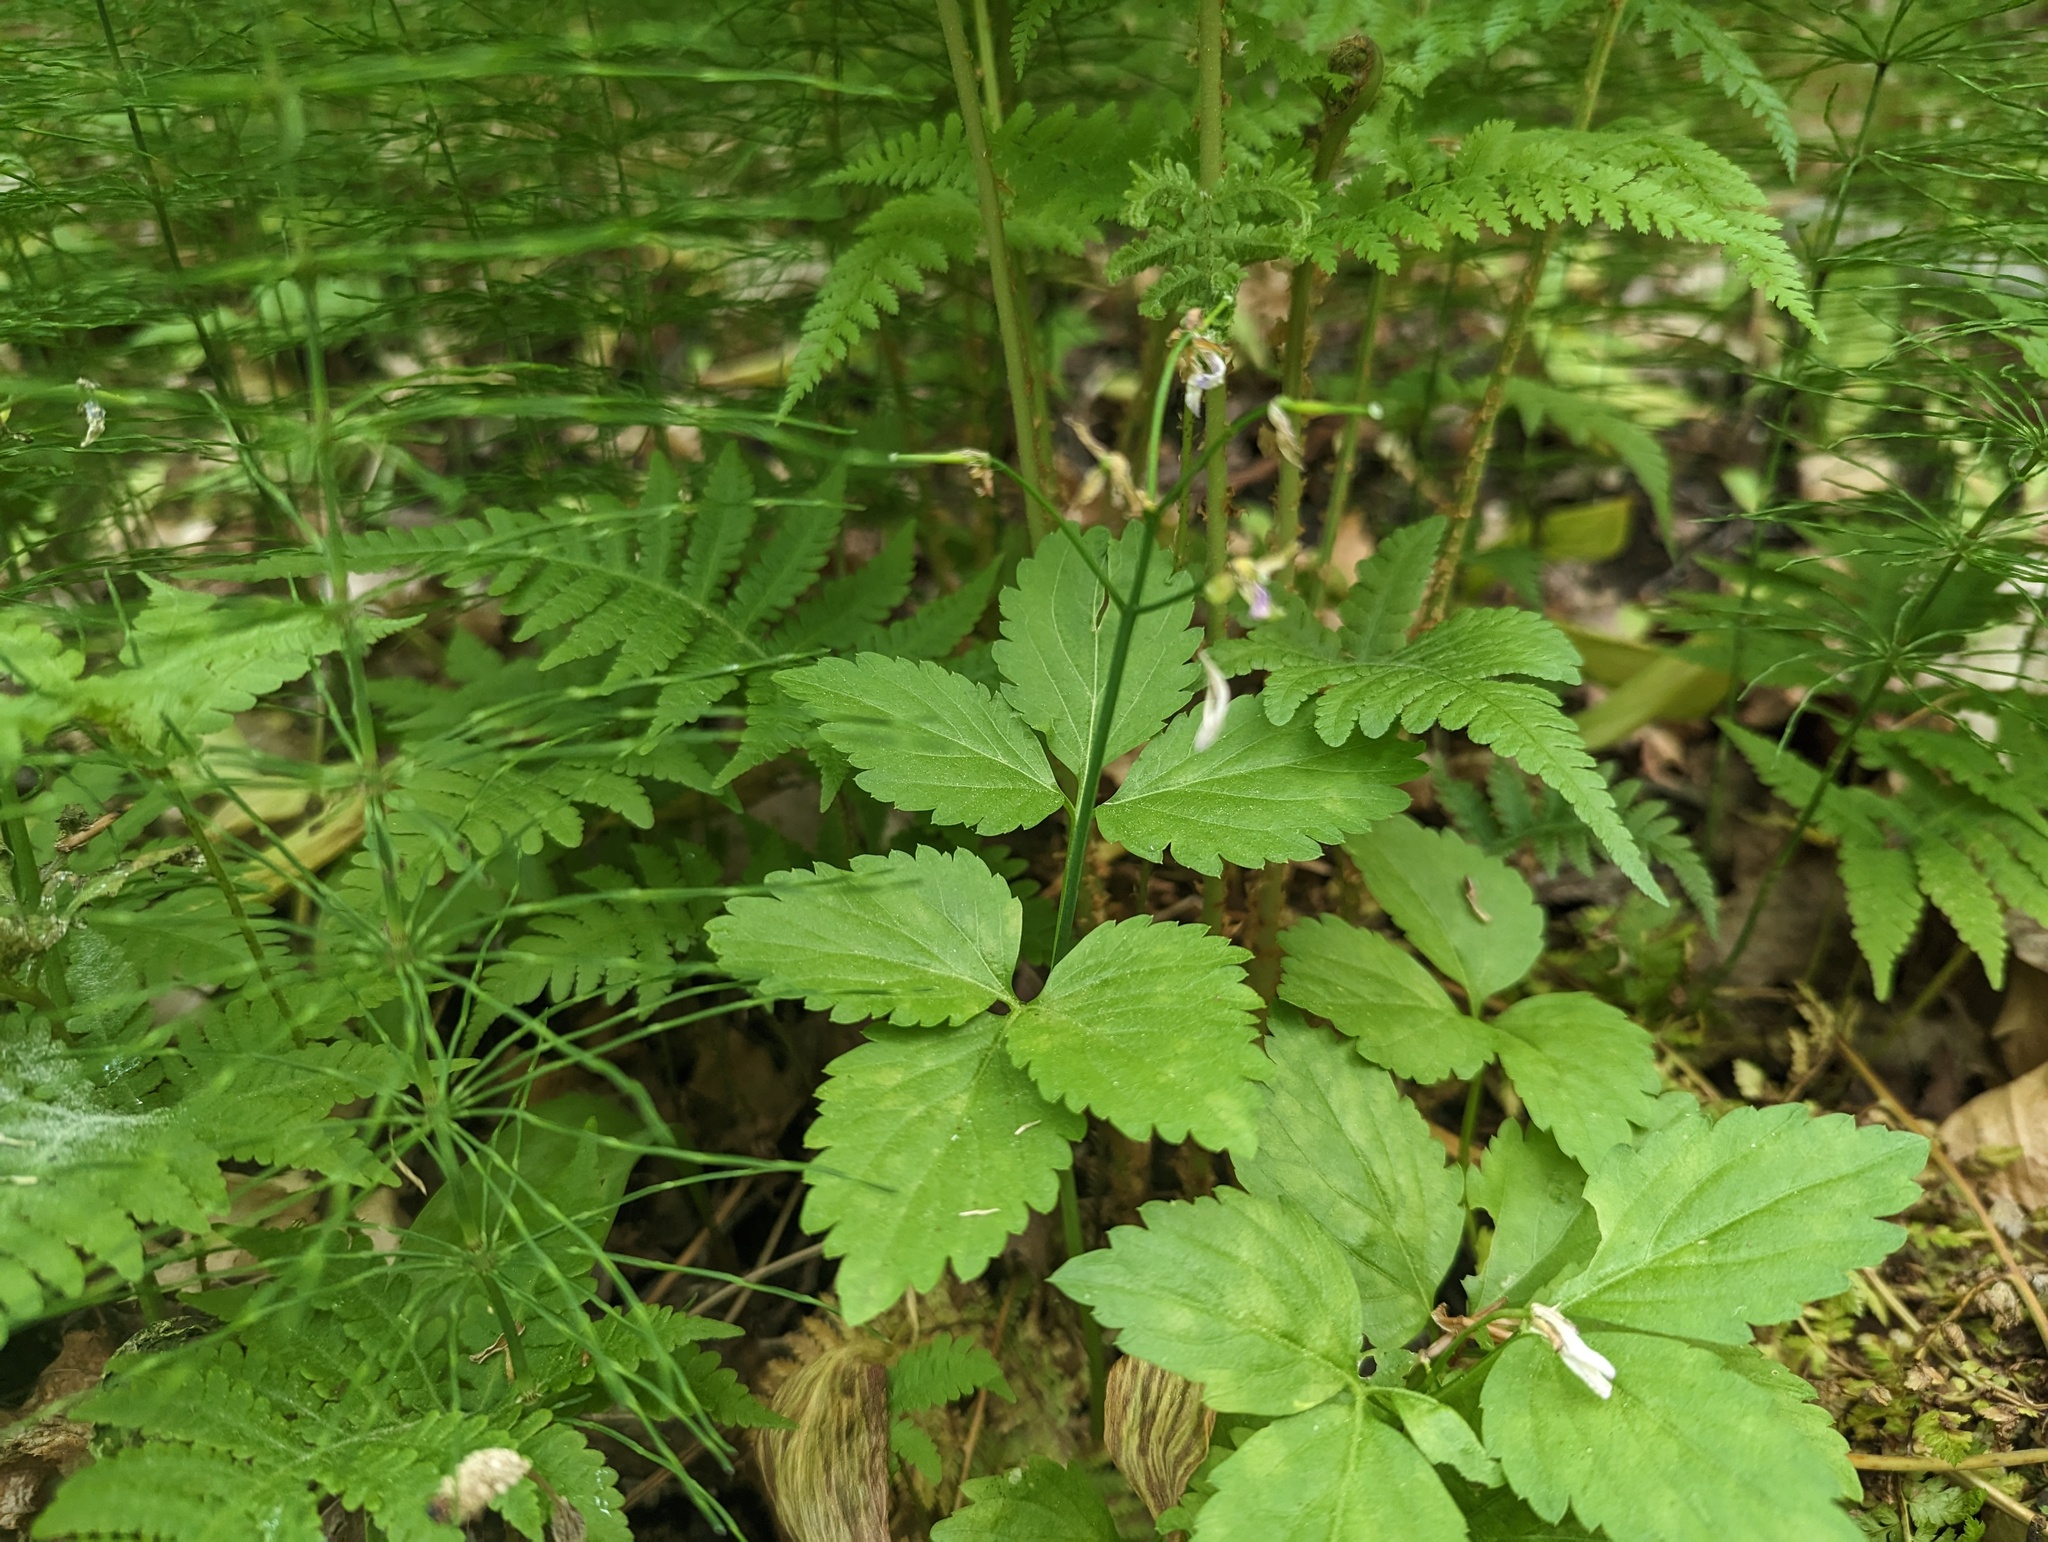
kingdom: Plantae
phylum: Tracheophyta
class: Magnoliopsida
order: Brassicales
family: Brassicaceae
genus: Cardamine
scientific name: Cardamine diphylla
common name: Broad-leaved toothwort
